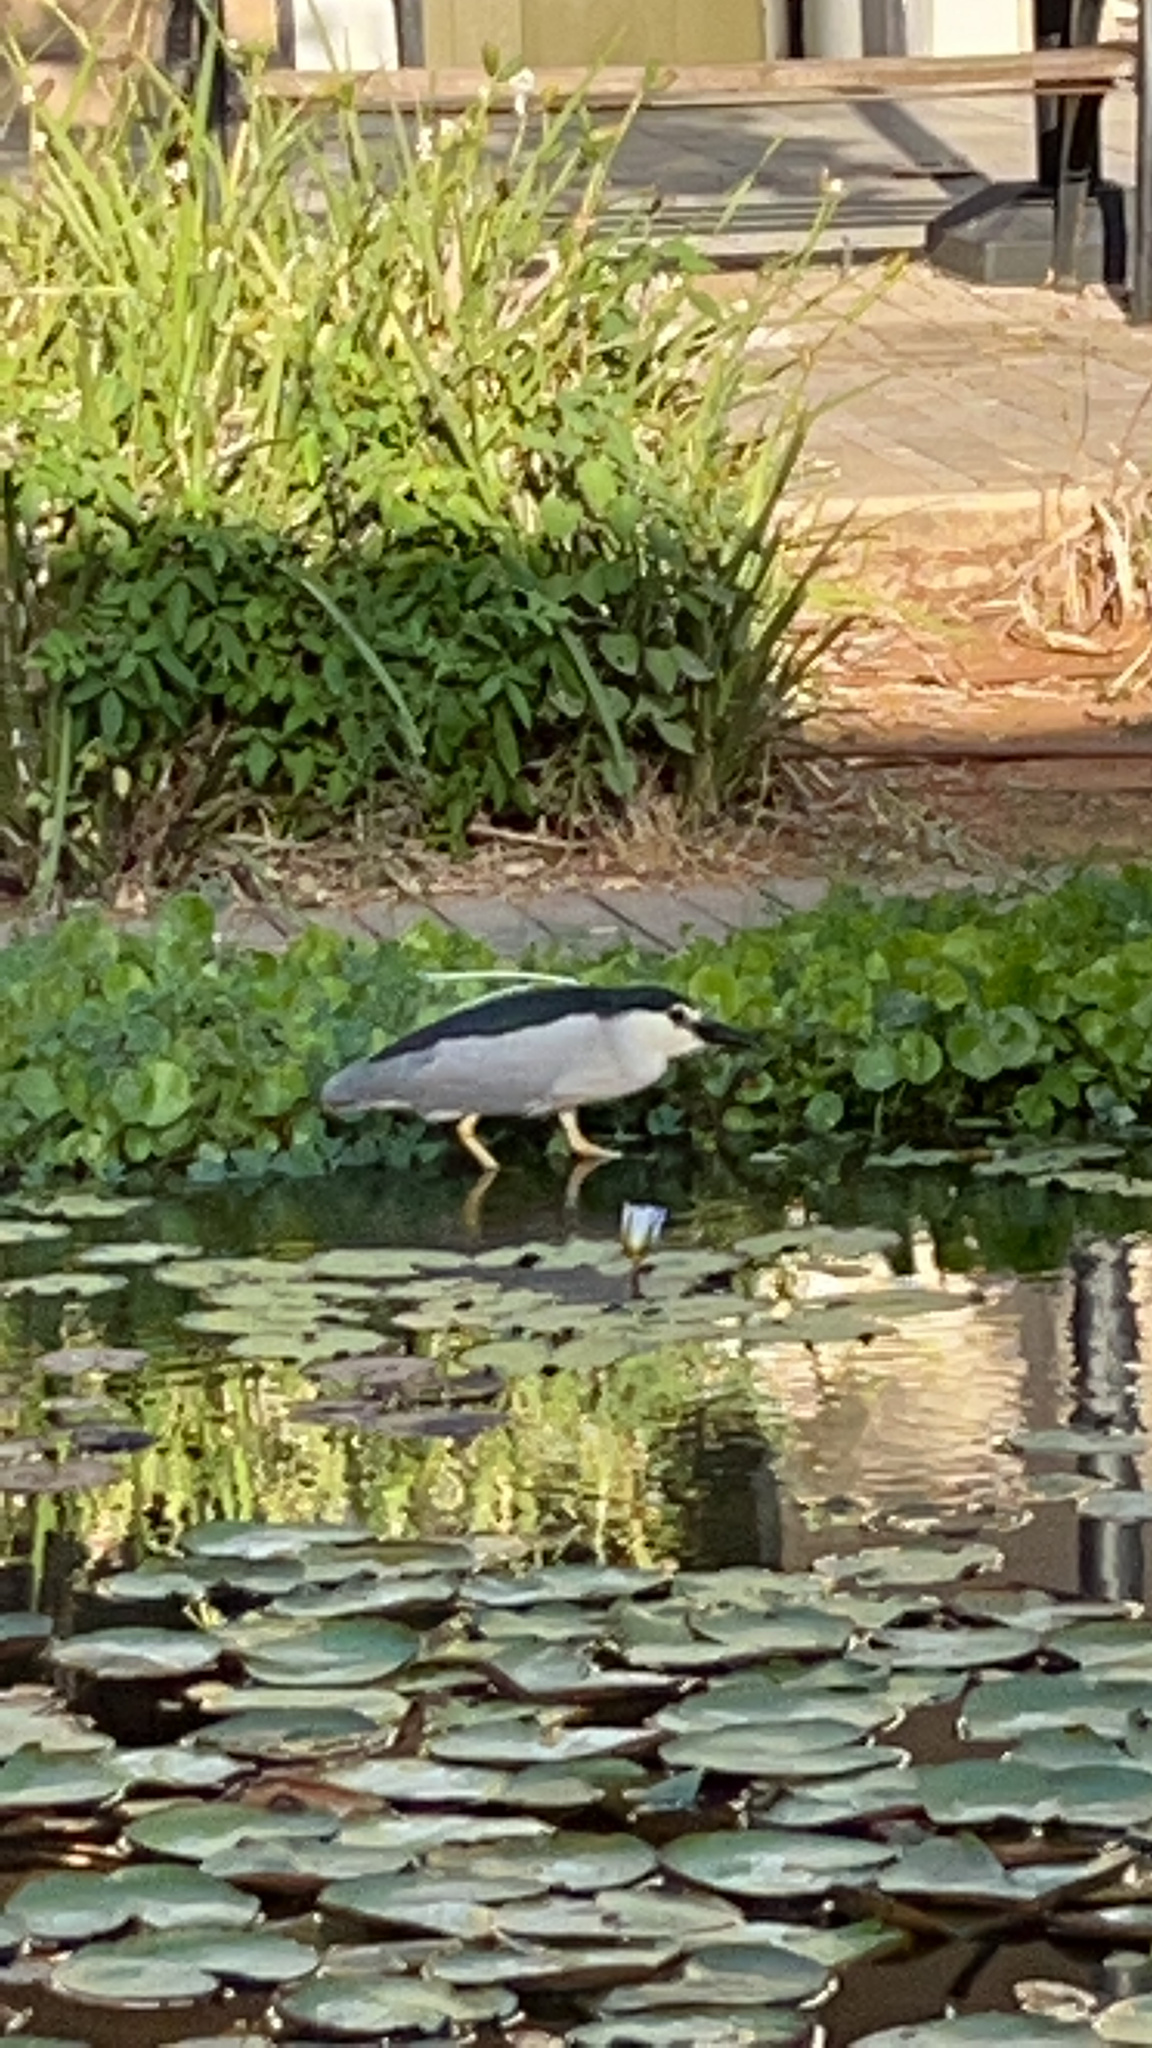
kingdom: Animalia
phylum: Chordata
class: Aves
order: Pelecaniformes
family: Ardeidae
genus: Nycticorax
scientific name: Nycticorax nycticorax
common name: Black-crowned night heron
